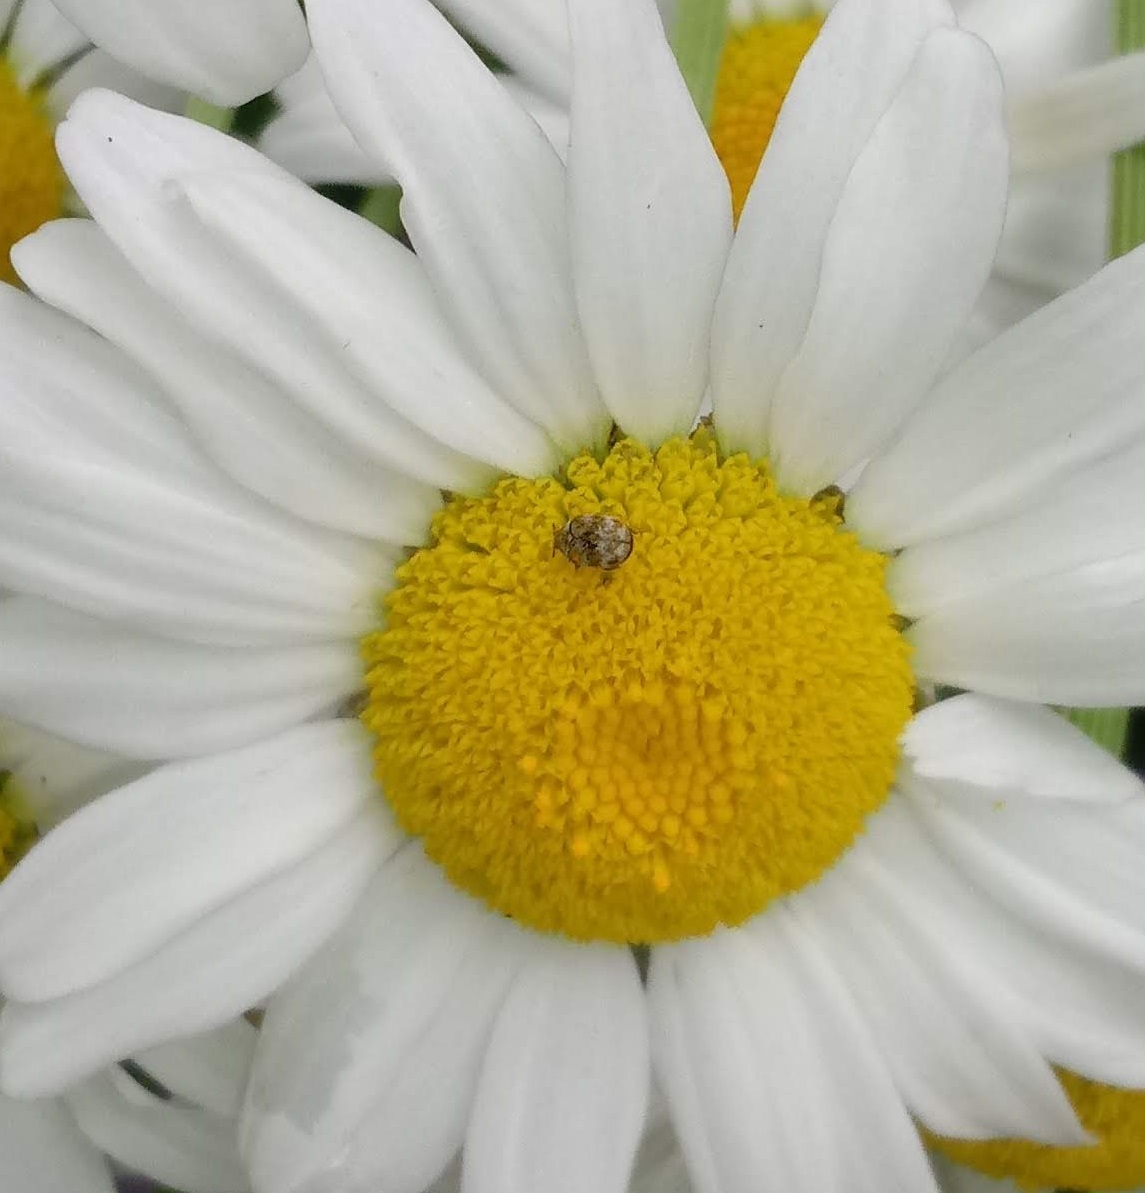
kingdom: Animalia
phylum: Arthropoda
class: Insecta
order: Coleoptera
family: Dermestidae
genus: Anthrenus
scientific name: Anthrenus verbasci
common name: Varied carpet beetle
